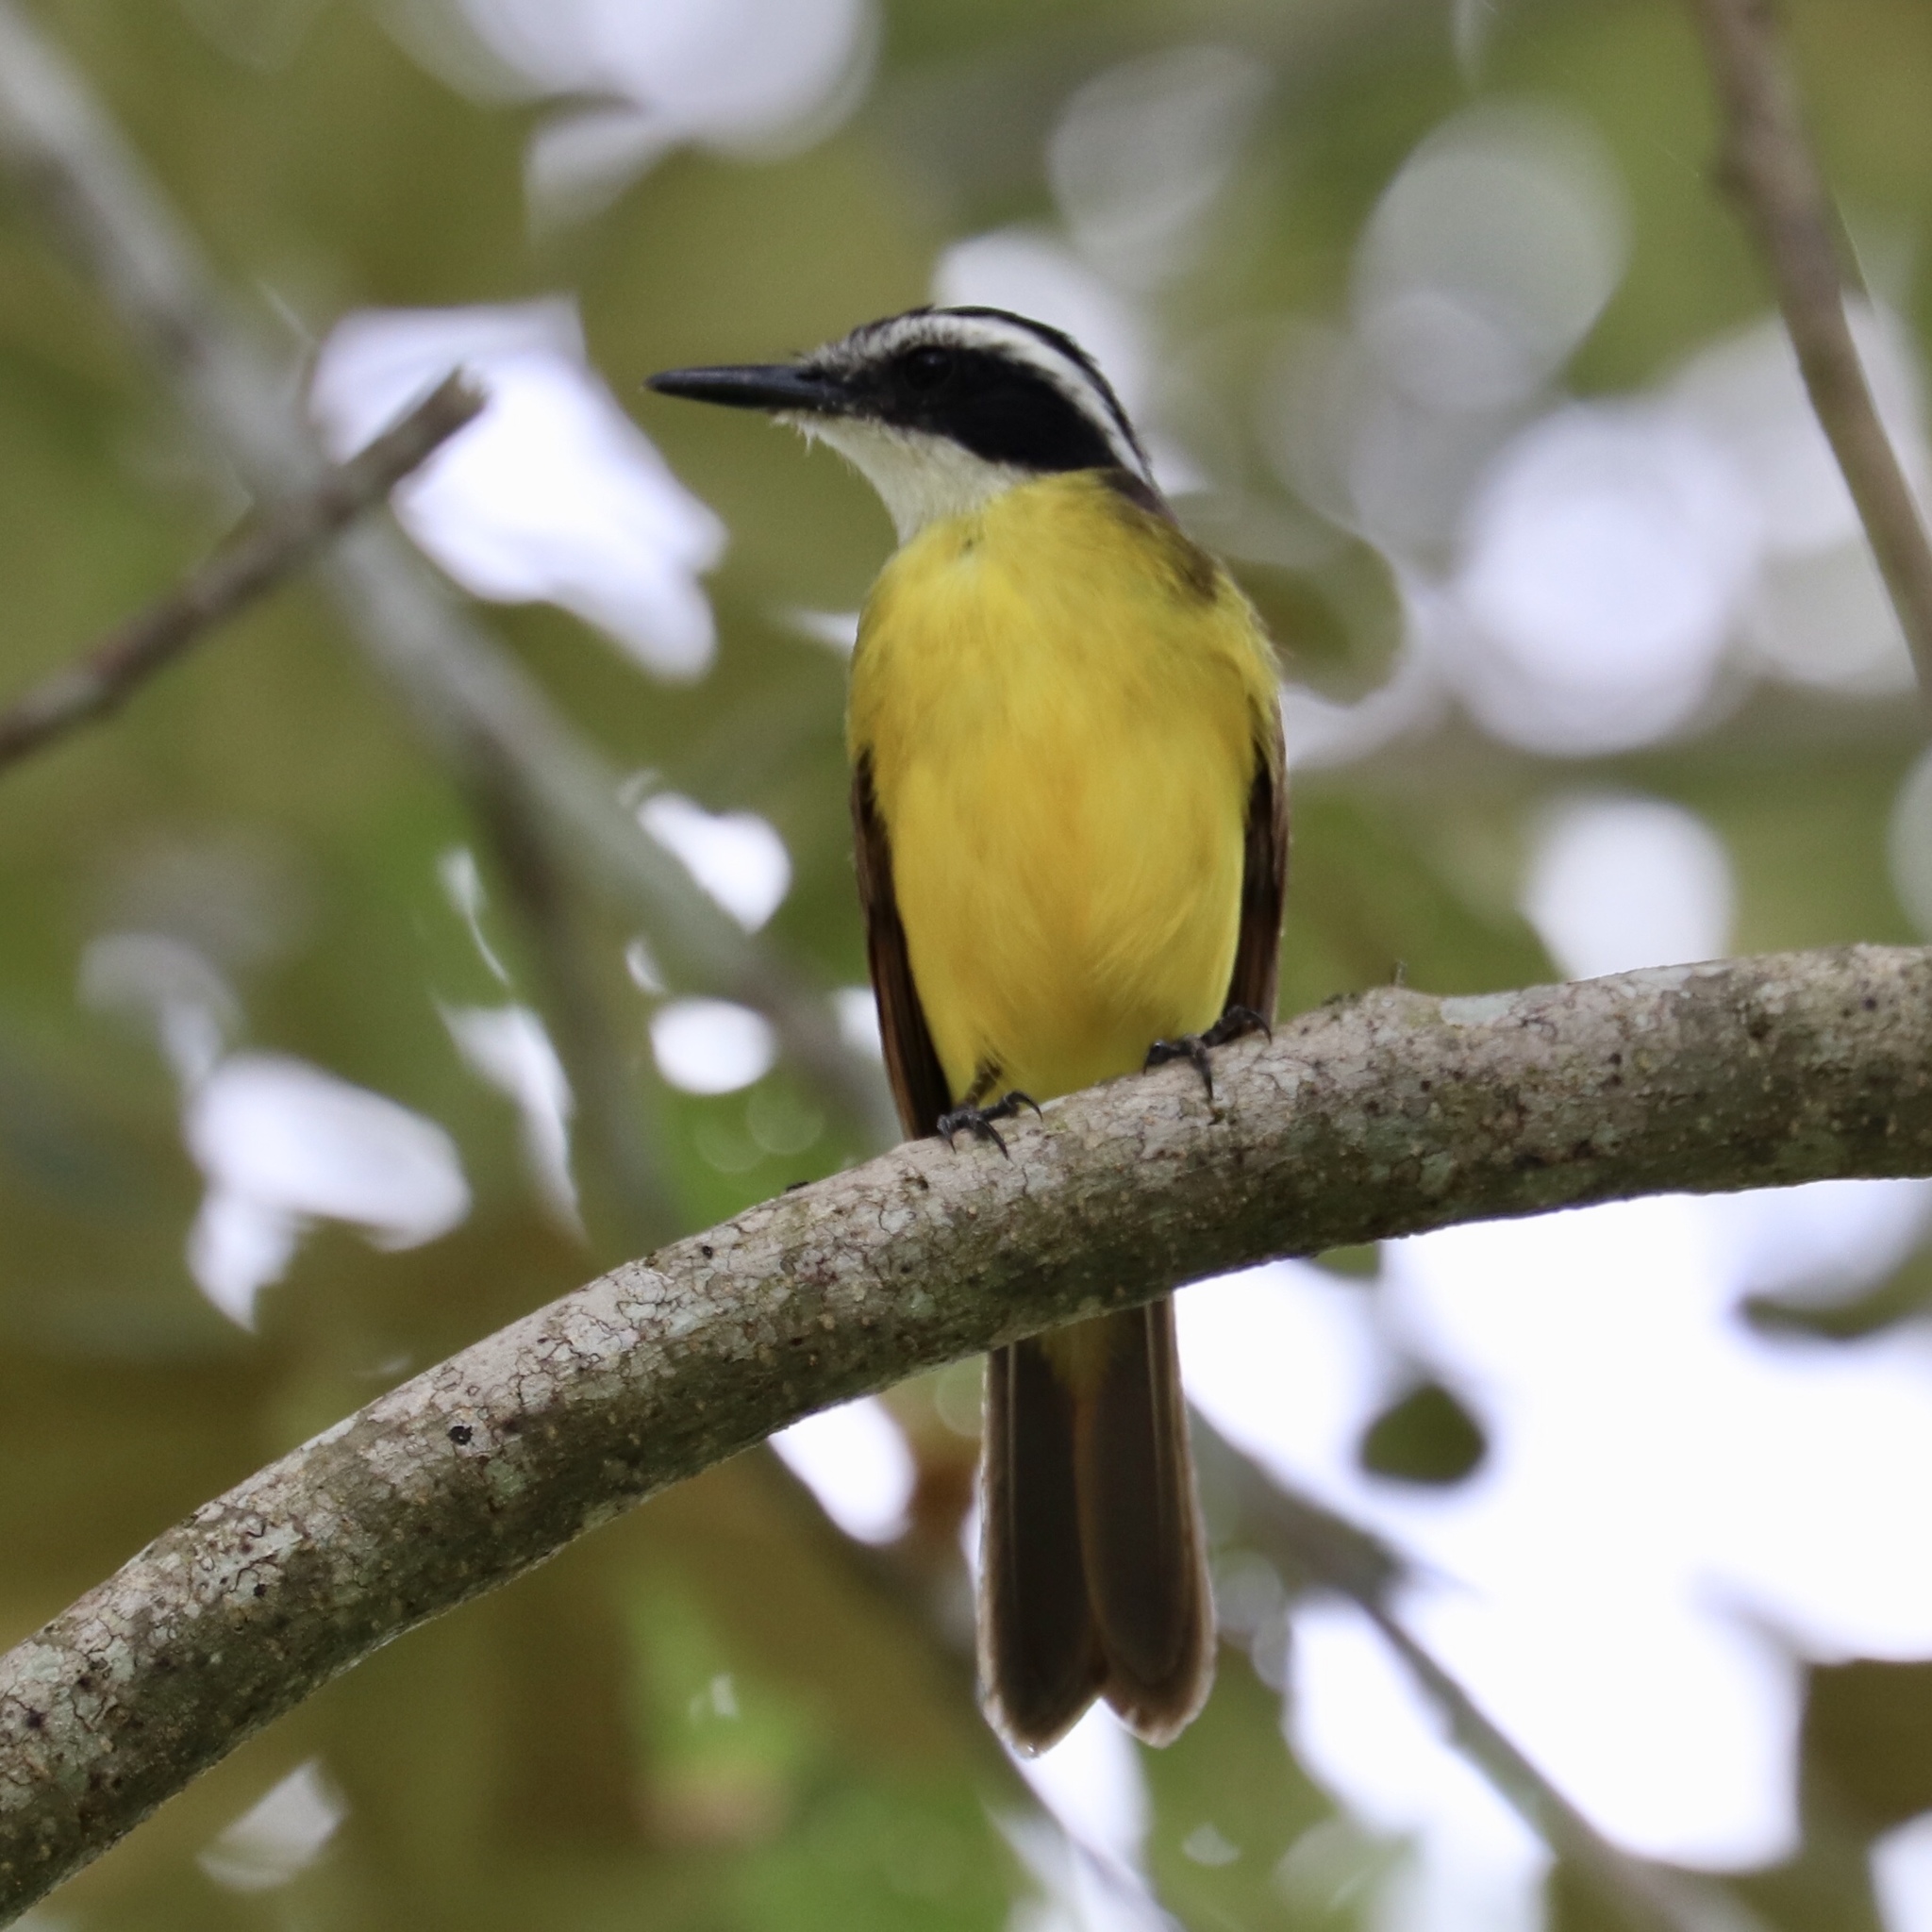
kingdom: Animalia
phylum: Chordata
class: Aves
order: Passeriformes
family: Tyrannidae
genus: Pitangus
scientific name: Pitangus lictor
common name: Lesser kiskadee
